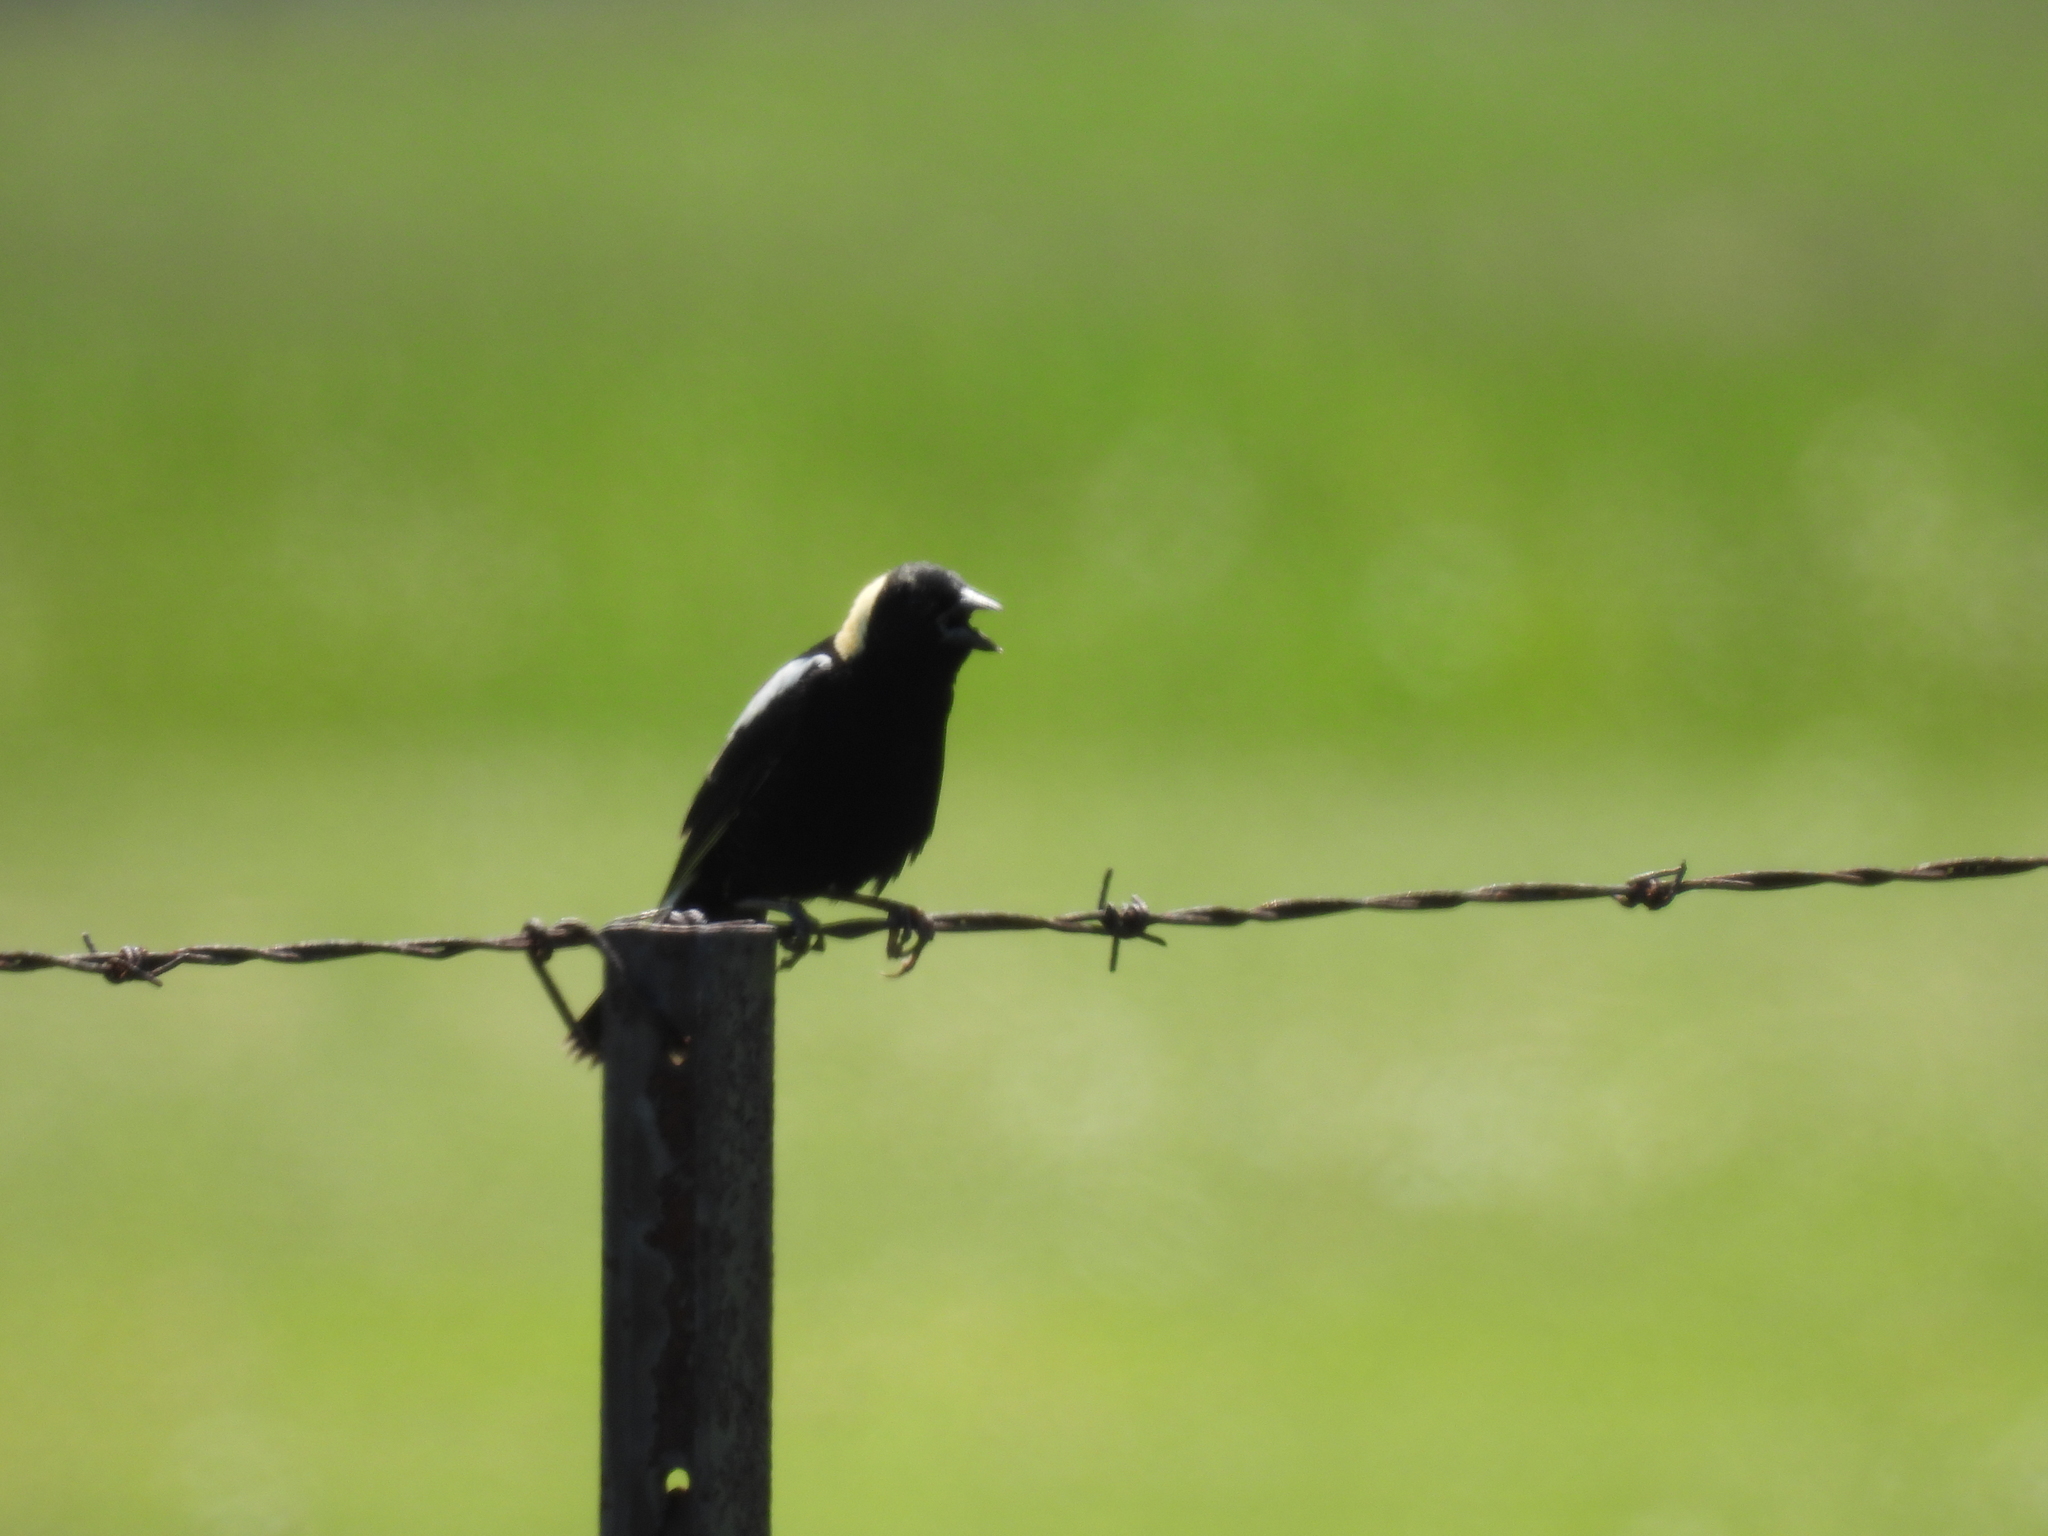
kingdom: Animalia
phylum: Chordata
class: Aves
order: Passeriformes
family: Icteridae
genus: Dolichonyx
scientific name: Dolichonyx oryzivorus
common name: Bobolink
